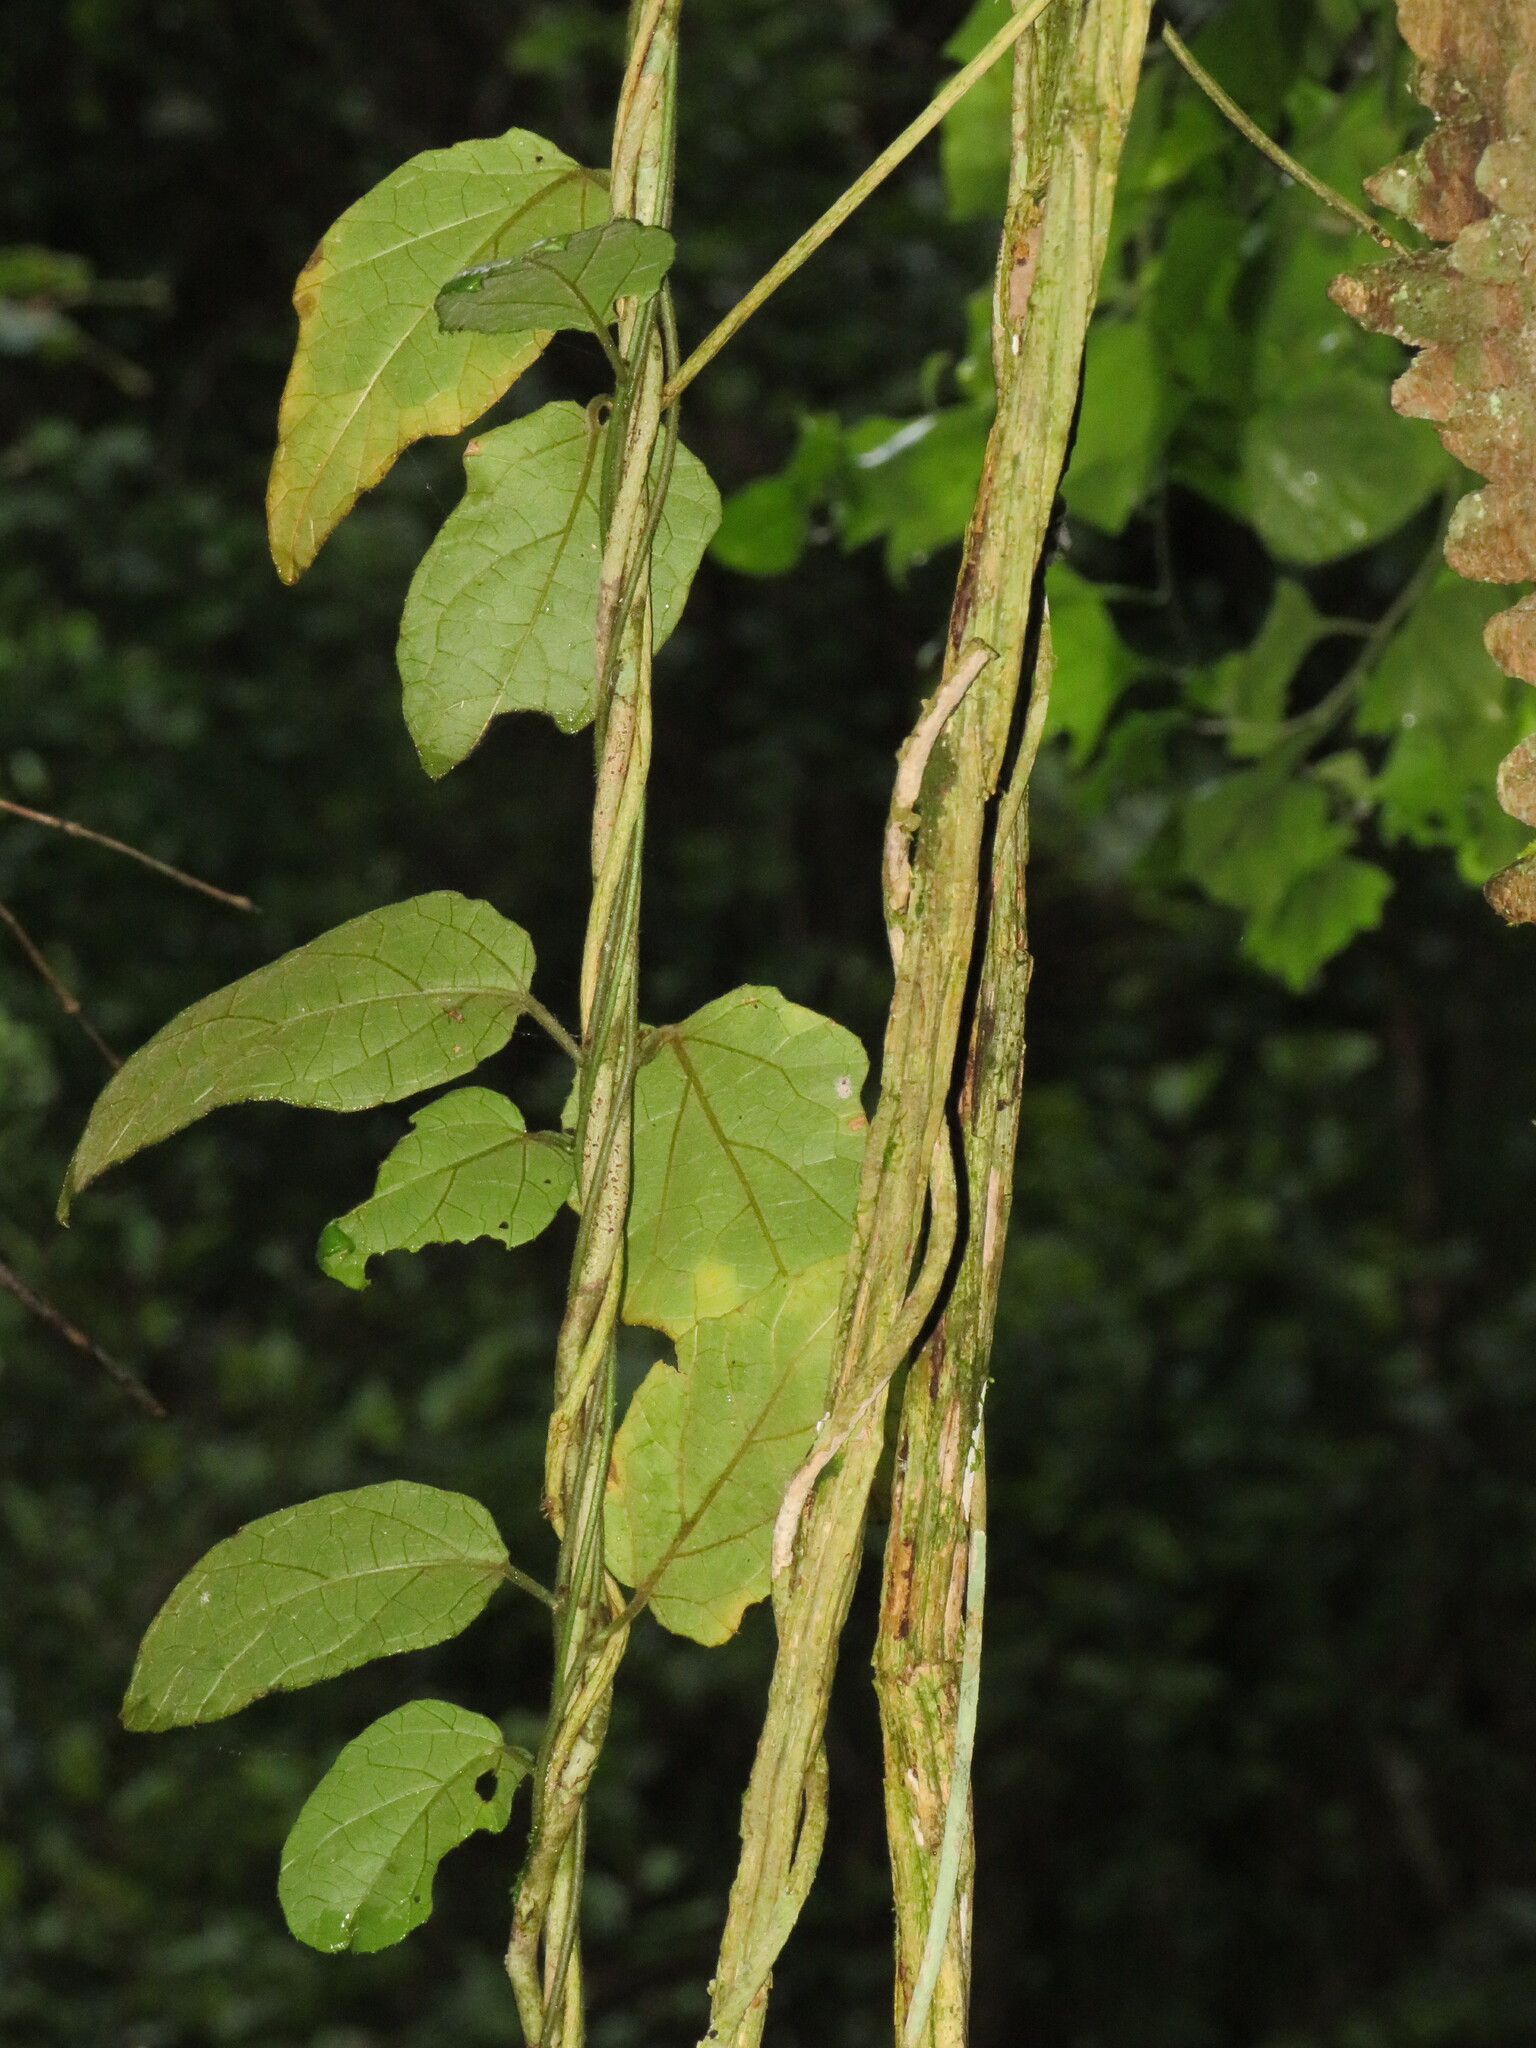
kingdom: Plantae
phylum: Tracheophyta
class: Magnoliopsida
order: Icacinales
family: Icacinaceae
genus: Pyrenacantha
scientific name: Pyrenacantha scandens
